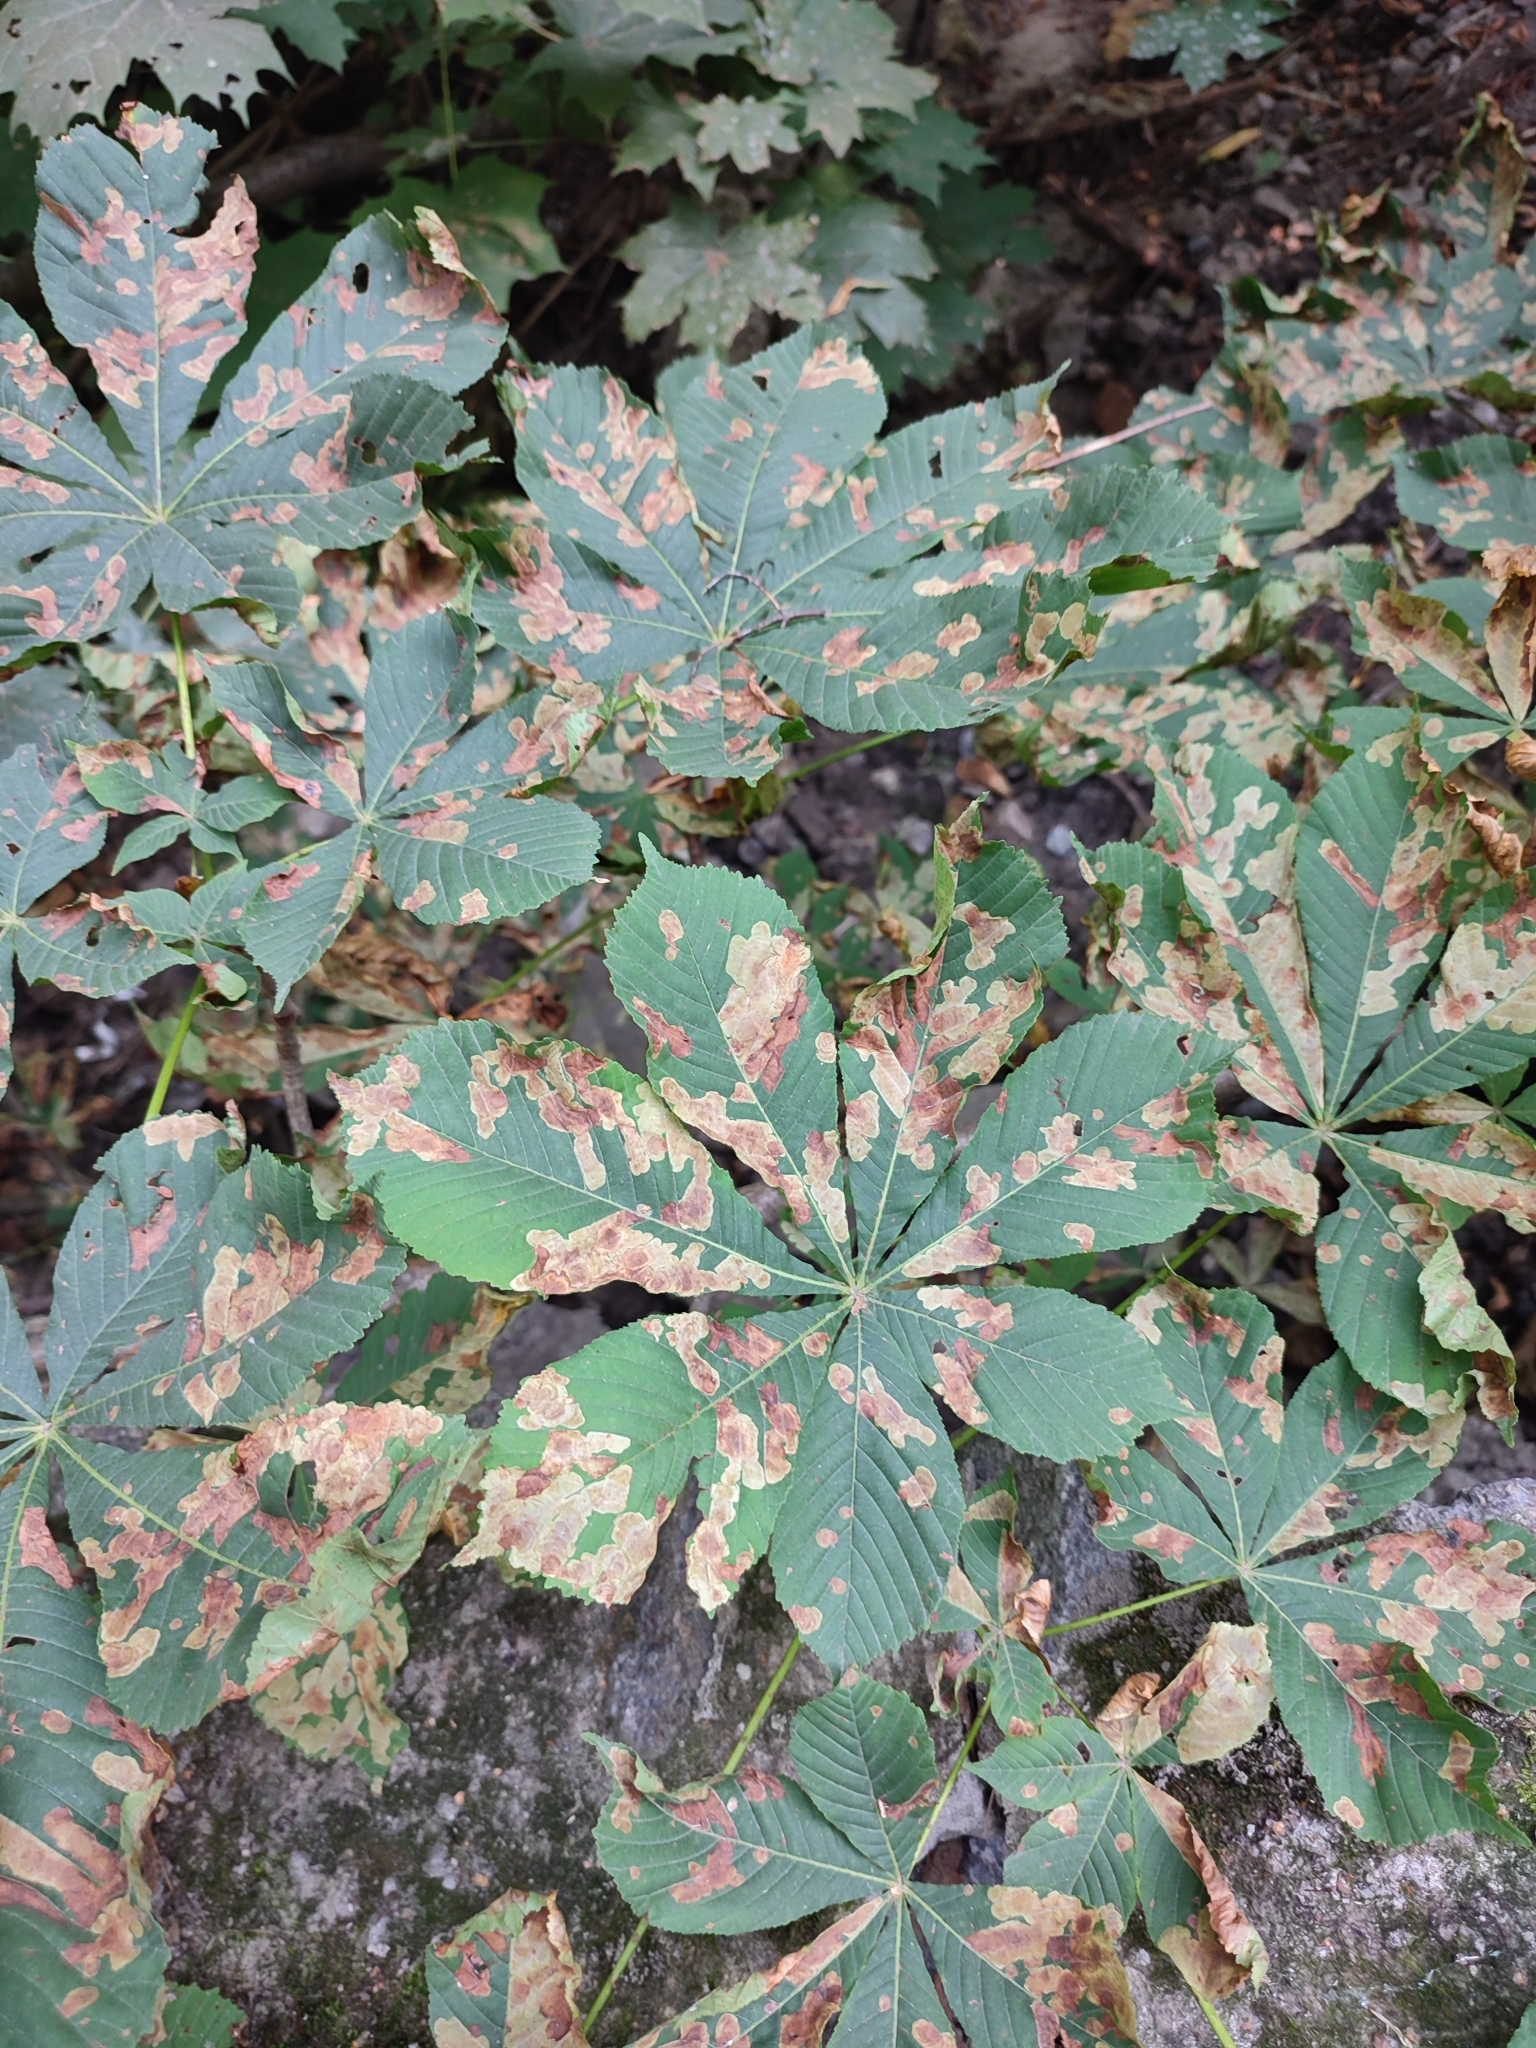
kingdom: Animalia
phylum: Arthropoda
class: Insecta
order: Lepidoptera
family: Gracillariidae
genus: Cameraria
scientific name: Cameraria ohridella
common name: Horse-chestnut leaf-miner
